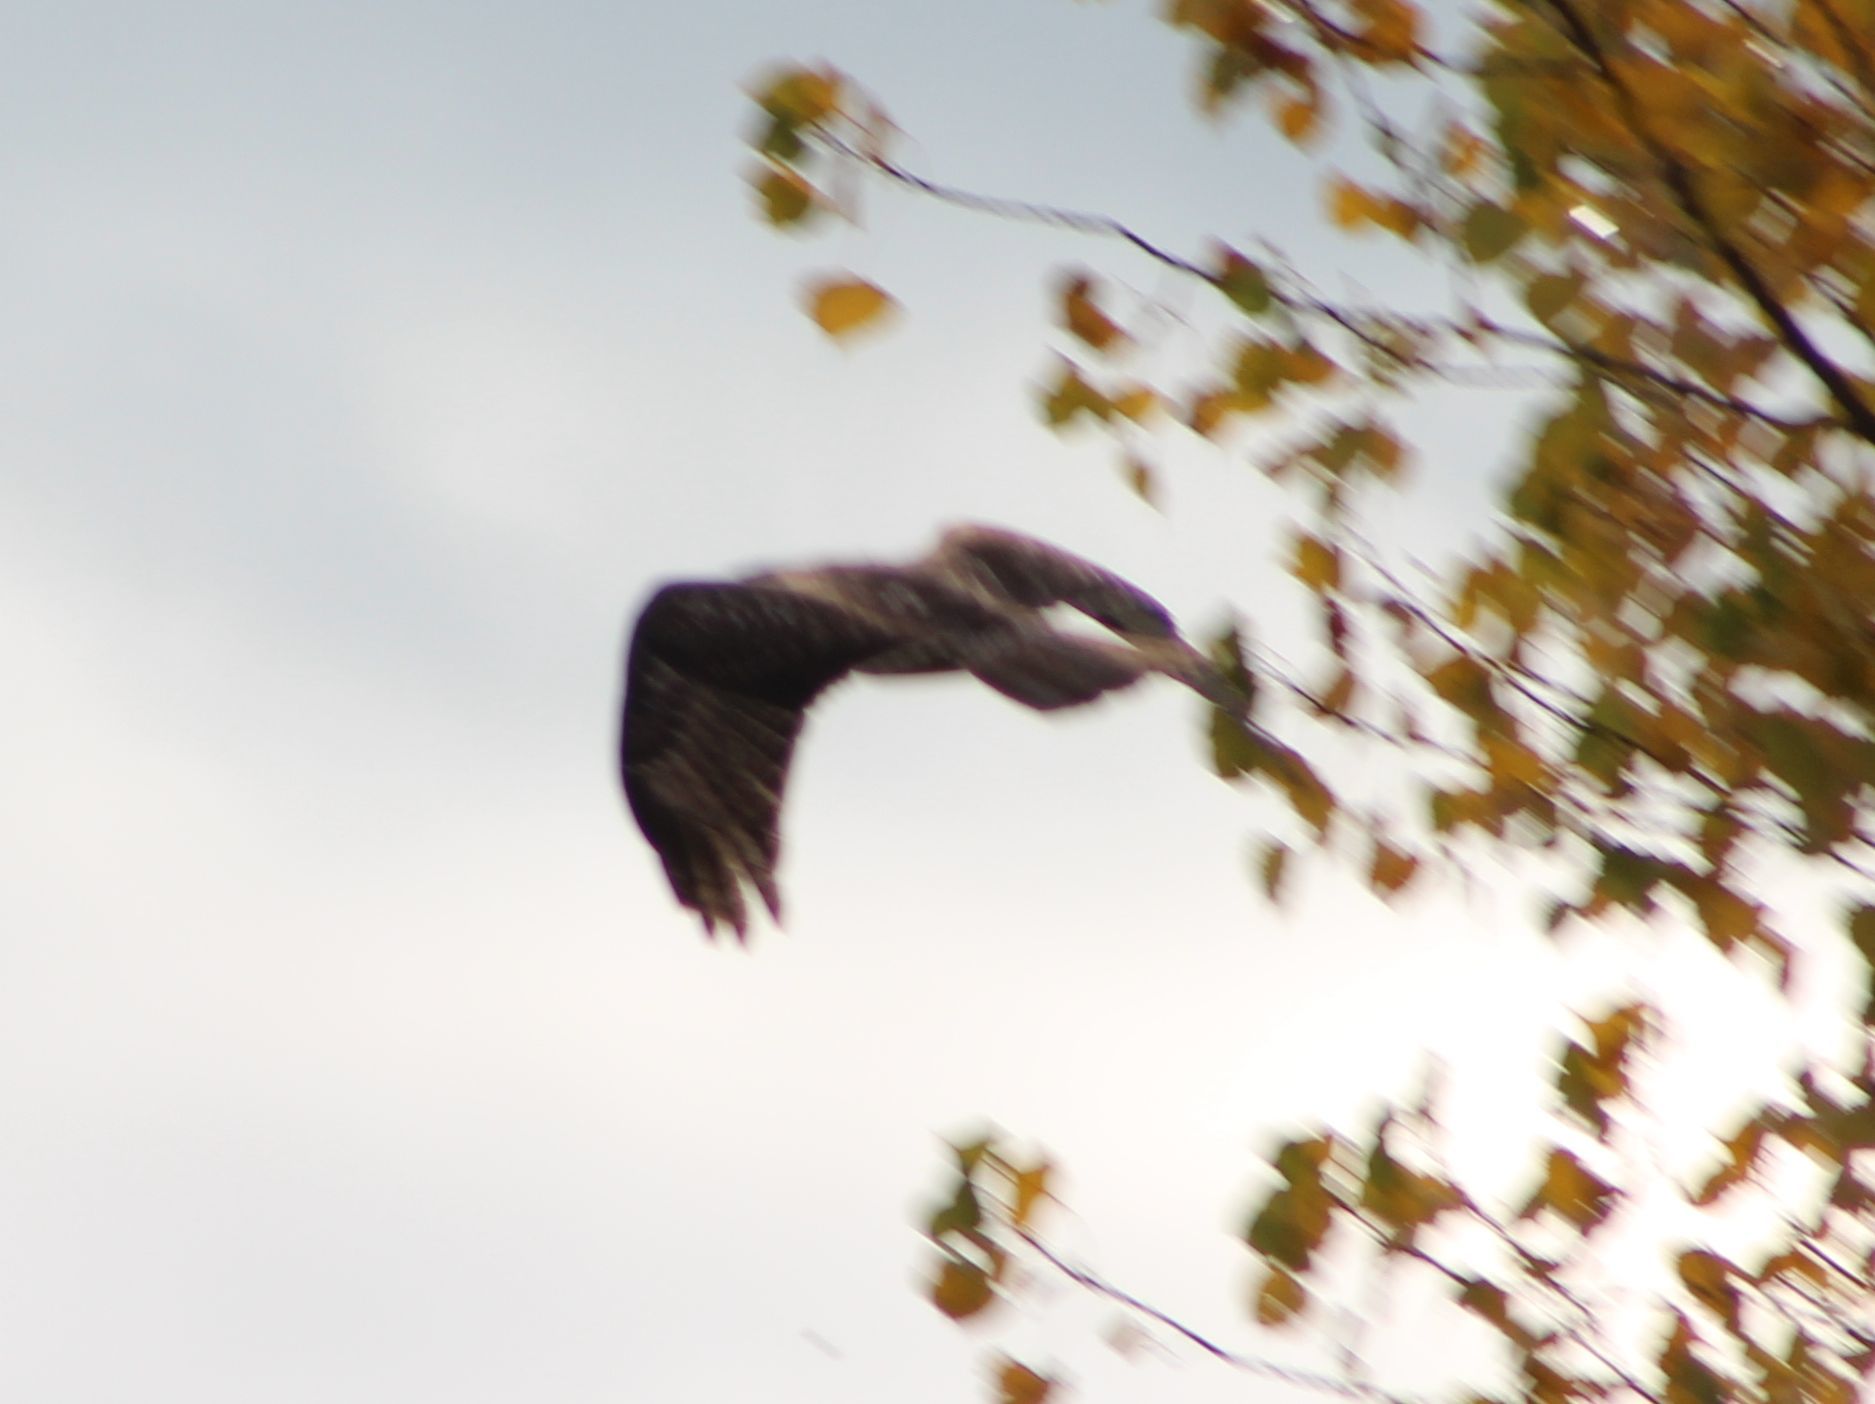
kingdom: Animalia
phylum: Chordata
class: Aves
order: Accipitriformes
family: Accipitridae
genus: Buteo
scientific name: Buteo jamaicensis
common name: Red-tailed hawk
